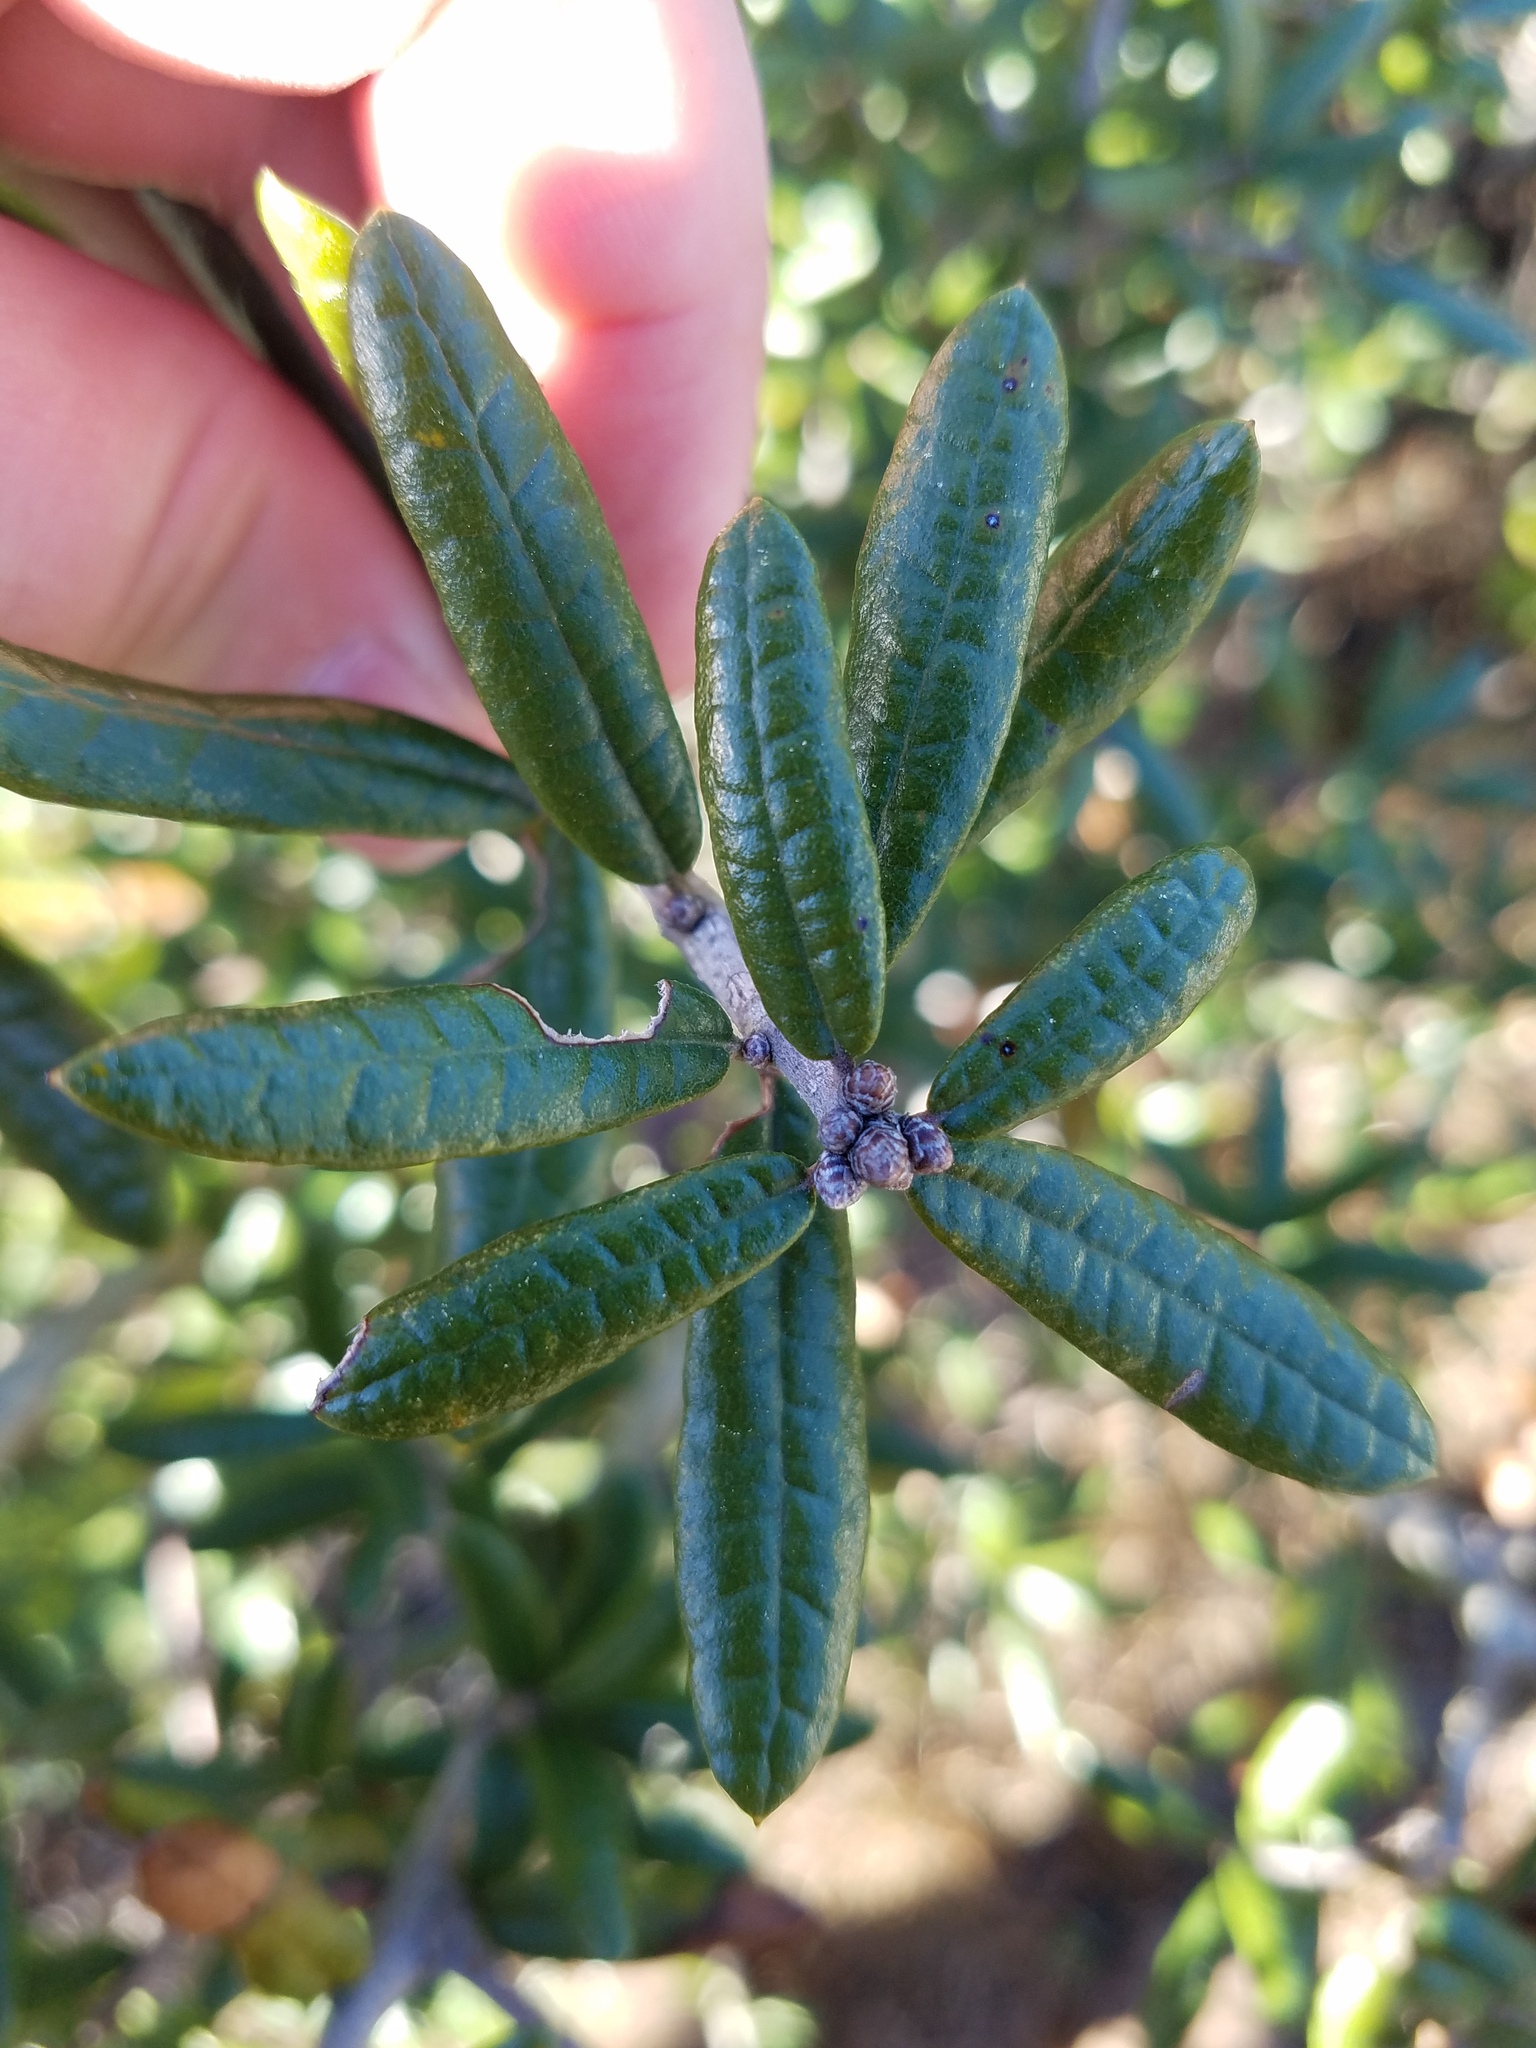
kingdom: Plantae
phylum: Tracheophyta
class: Magnoliopsida
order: Fagales
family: Fagaceae
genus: Quercus
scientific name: Quercus geminata
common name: Sand live oak
